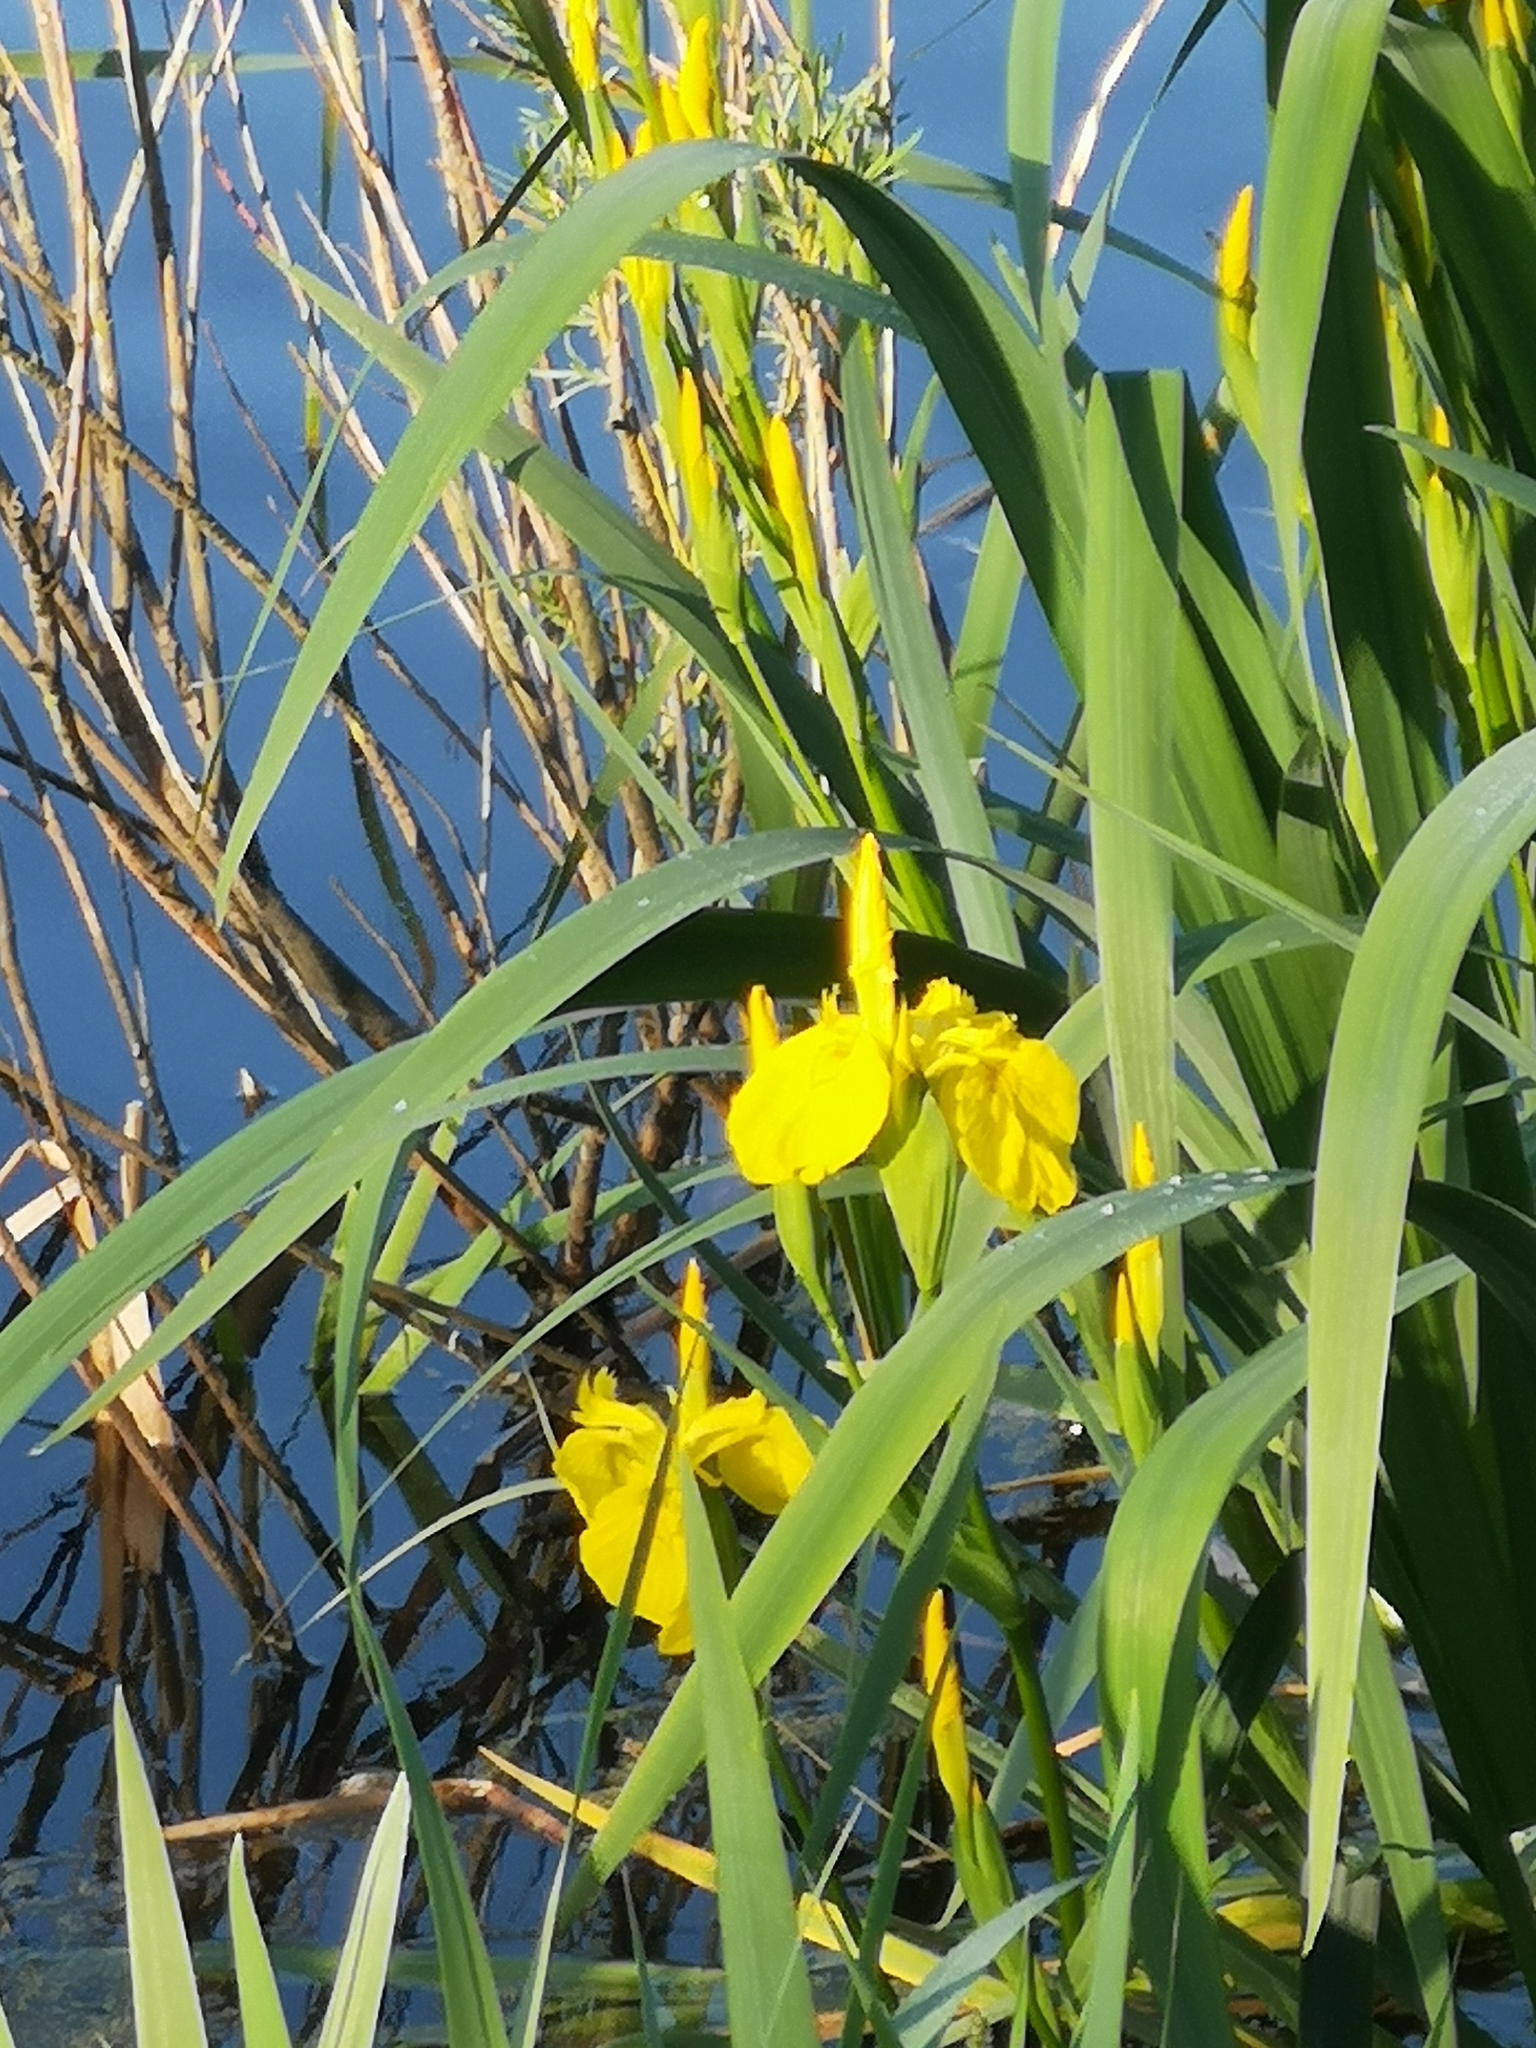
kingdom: Plantae
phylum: Tracheophyta
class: Liliopsida
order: Asparagales
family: Iridaceae
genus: Iris
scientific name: Iris pseudacorus
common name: Yellow flag
